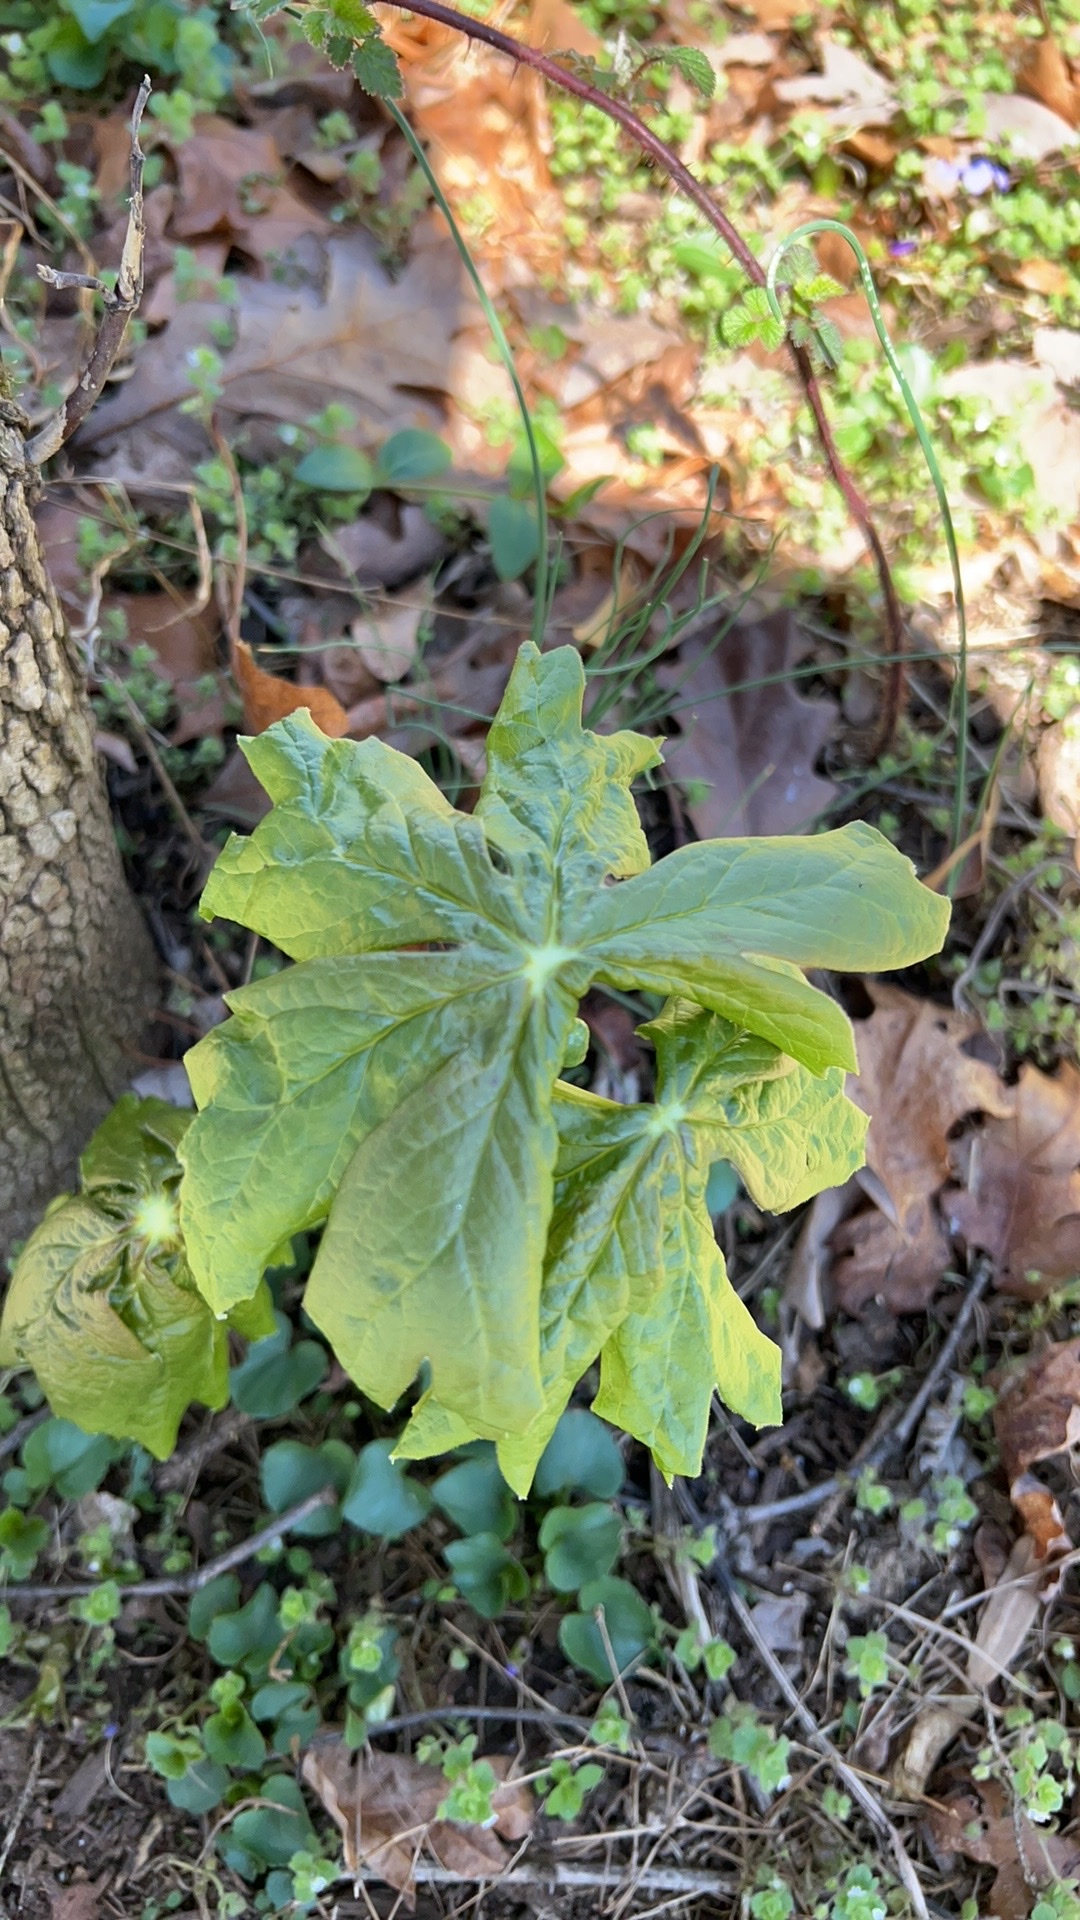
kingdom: Plantae
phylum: Tracheophyta
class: Magnoliopsida
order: Ranunculales
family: Berberidaceae
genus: Podophyllum
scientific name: Podophyllum peltatum
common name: Wild mandrake
